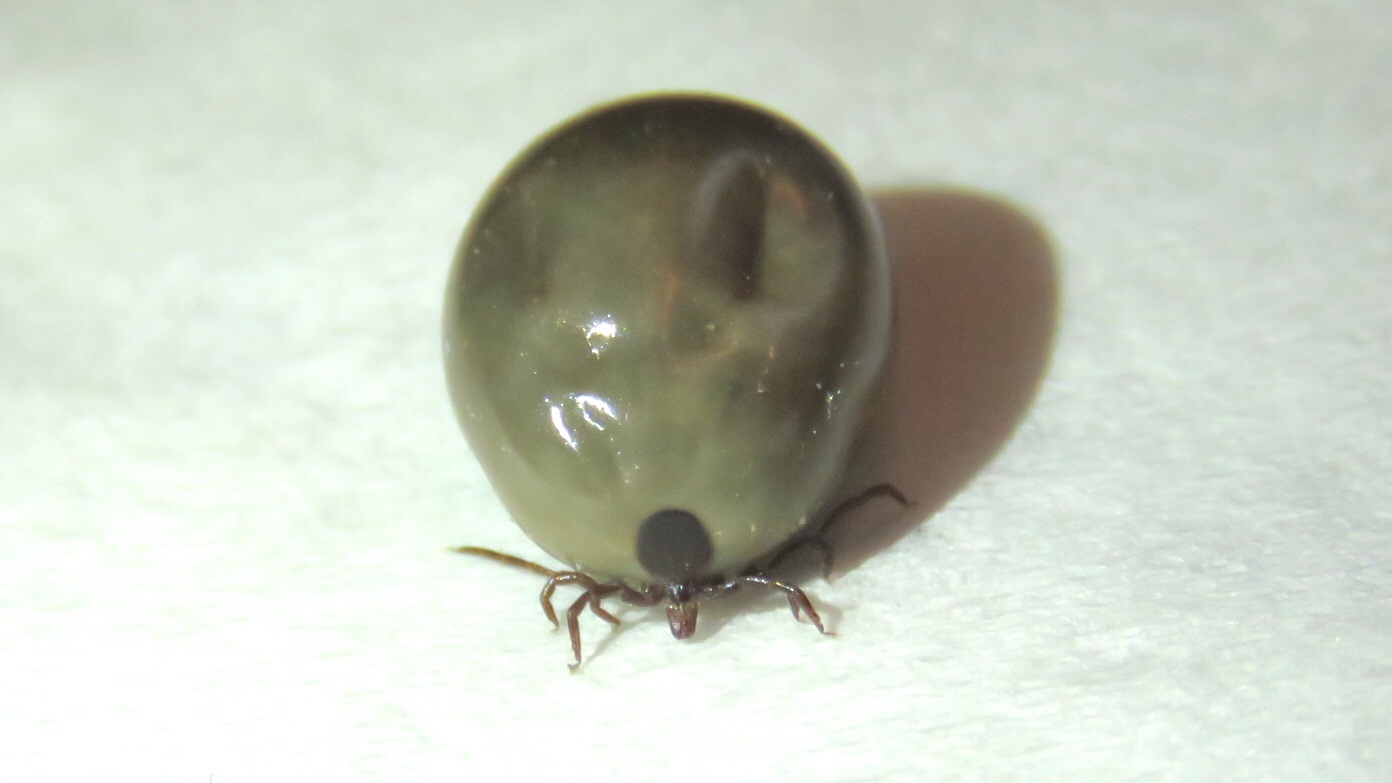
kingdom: Animalia
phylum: Arthropoda
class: Arachnida
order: Ixodida
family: Ixodidae
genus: Ixodes
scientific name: Ixodes scapularis
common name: Black legged tick
